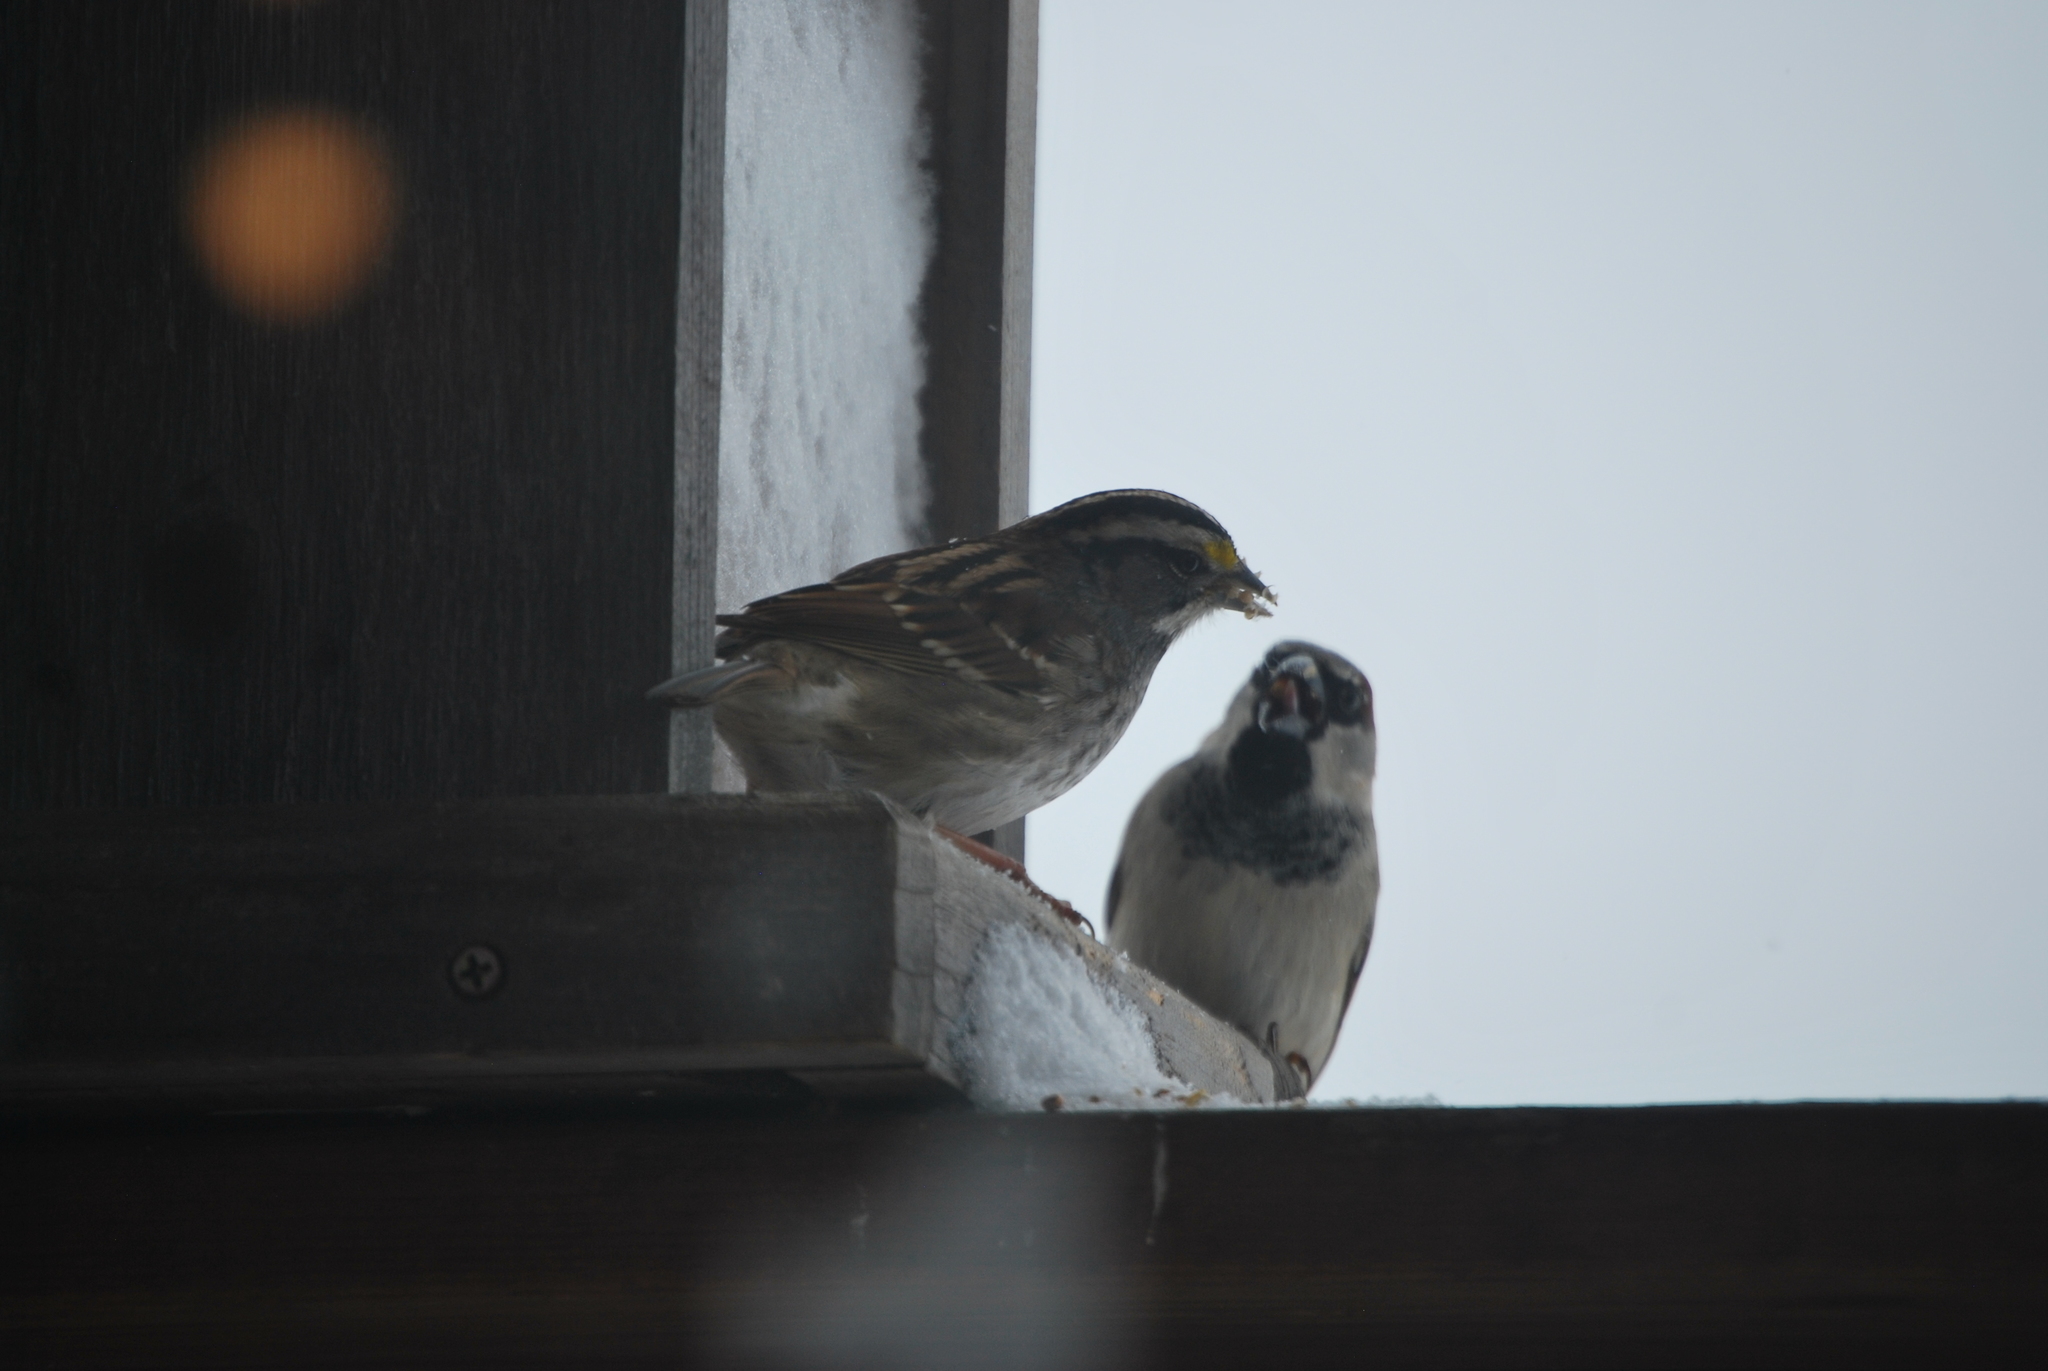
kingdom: Animalia
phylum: Chordata
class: Aves
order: Passeriformes
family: Passerellidae
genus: Zonotrichia
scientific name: Zonotrichia albicollis
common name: White-throated sparrow
